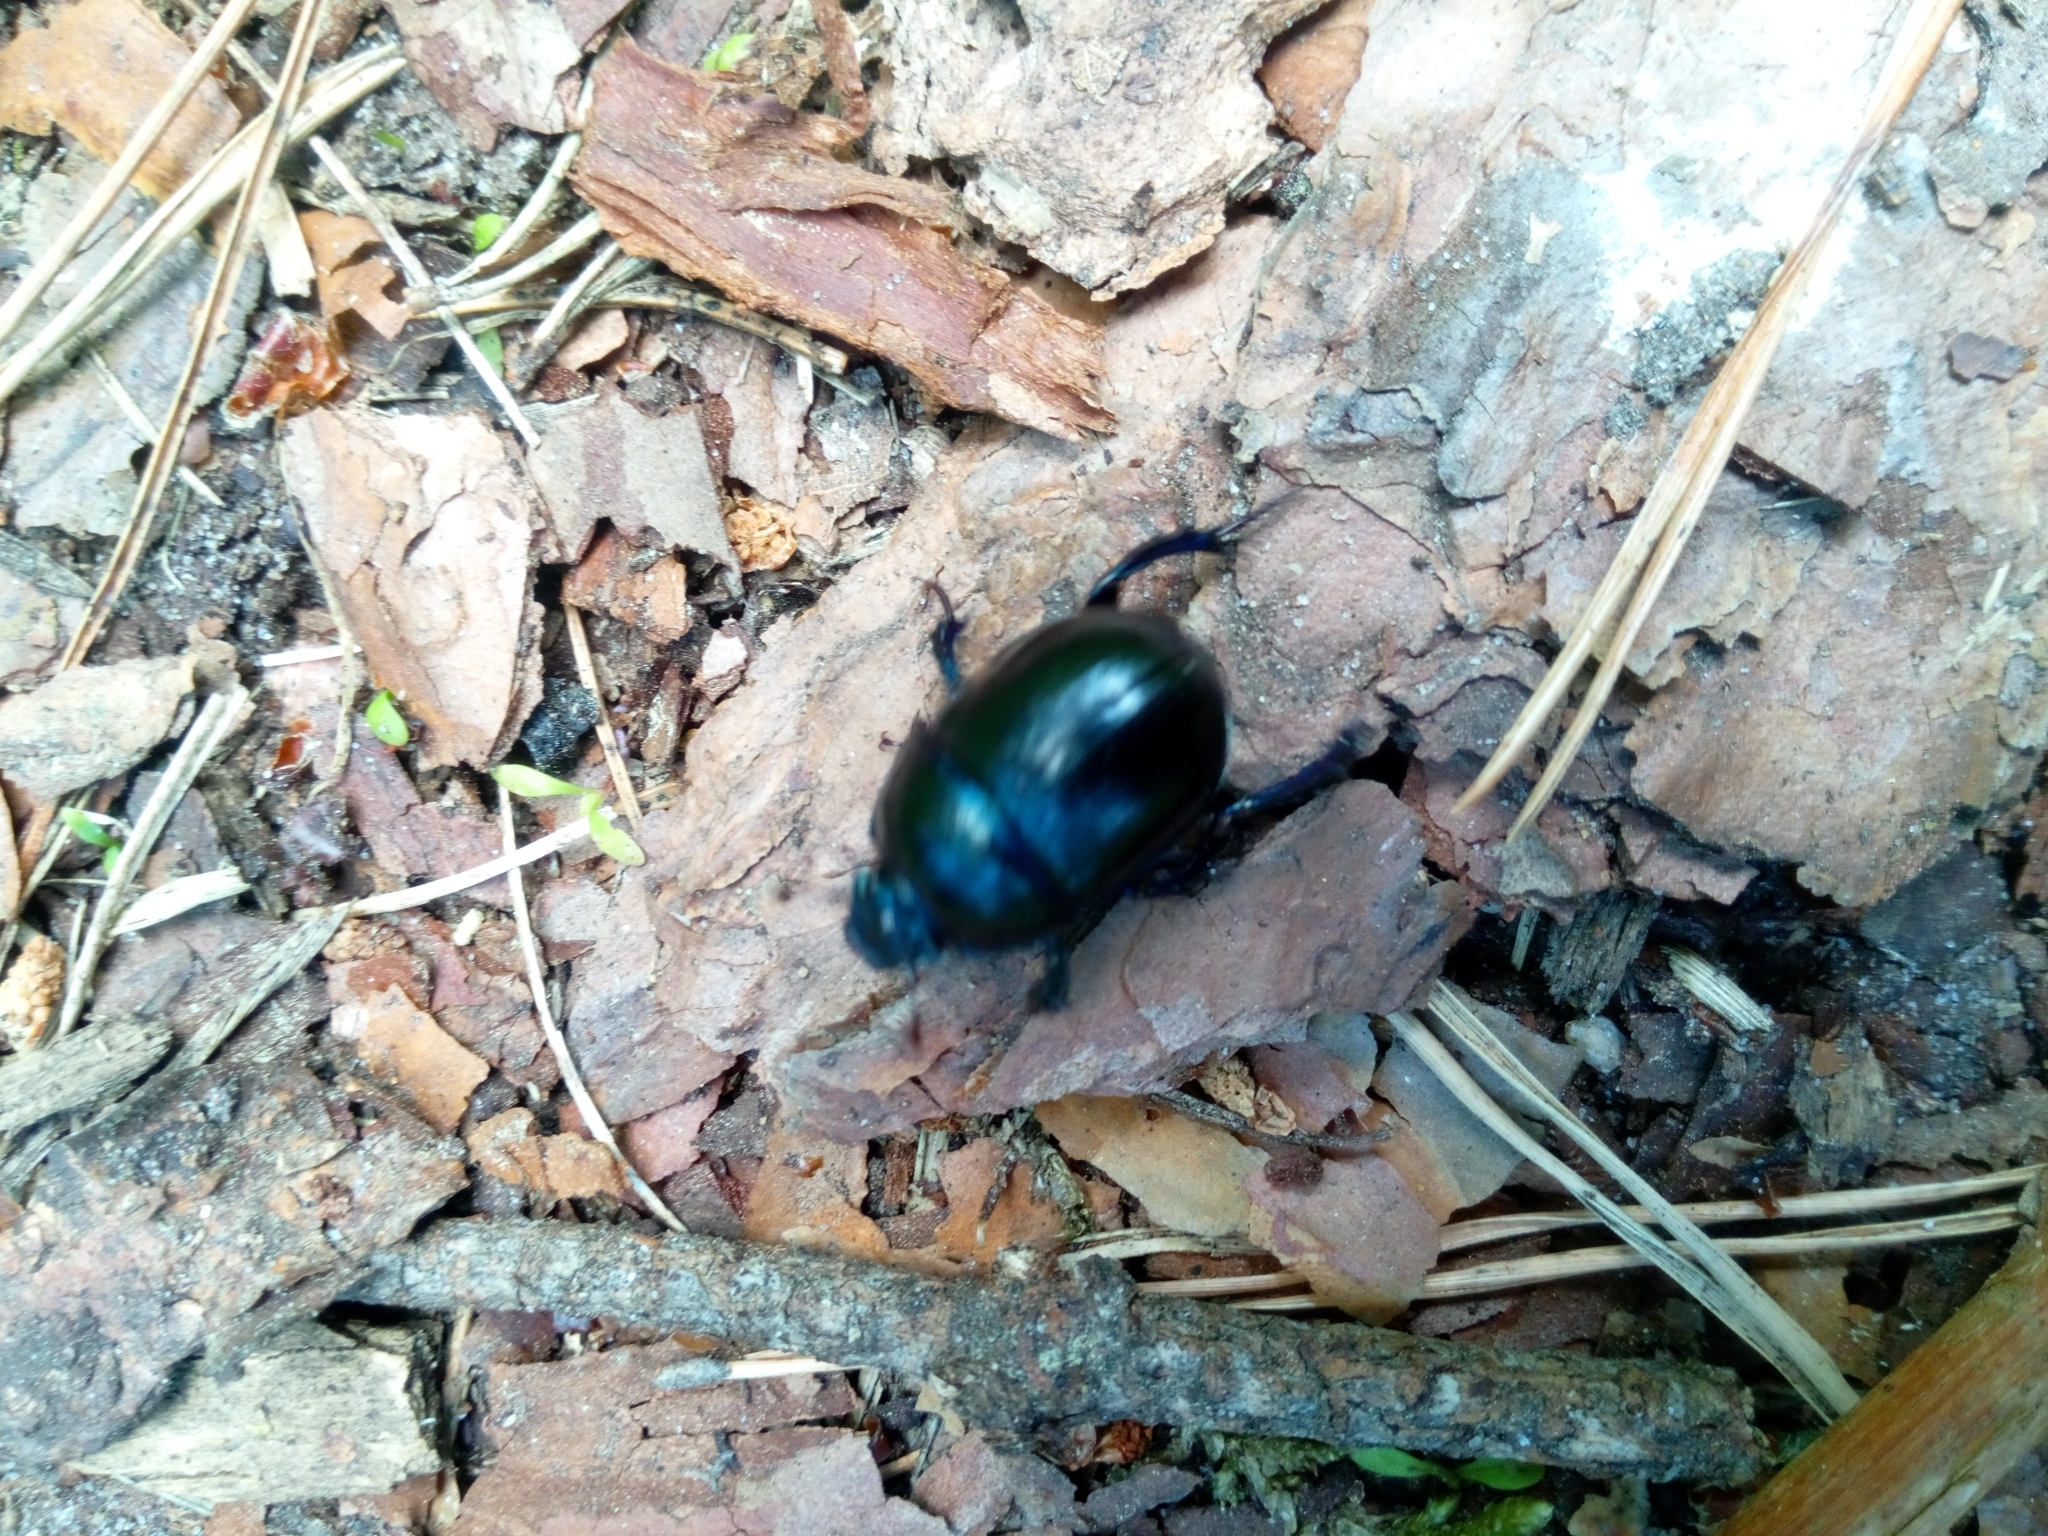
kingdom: Animalia
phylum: Arthropoda
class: Insecta
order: Coleoptera
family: Geotrupidae
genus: Anoplotrupes
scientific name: Anoplotrupes stercorosus
